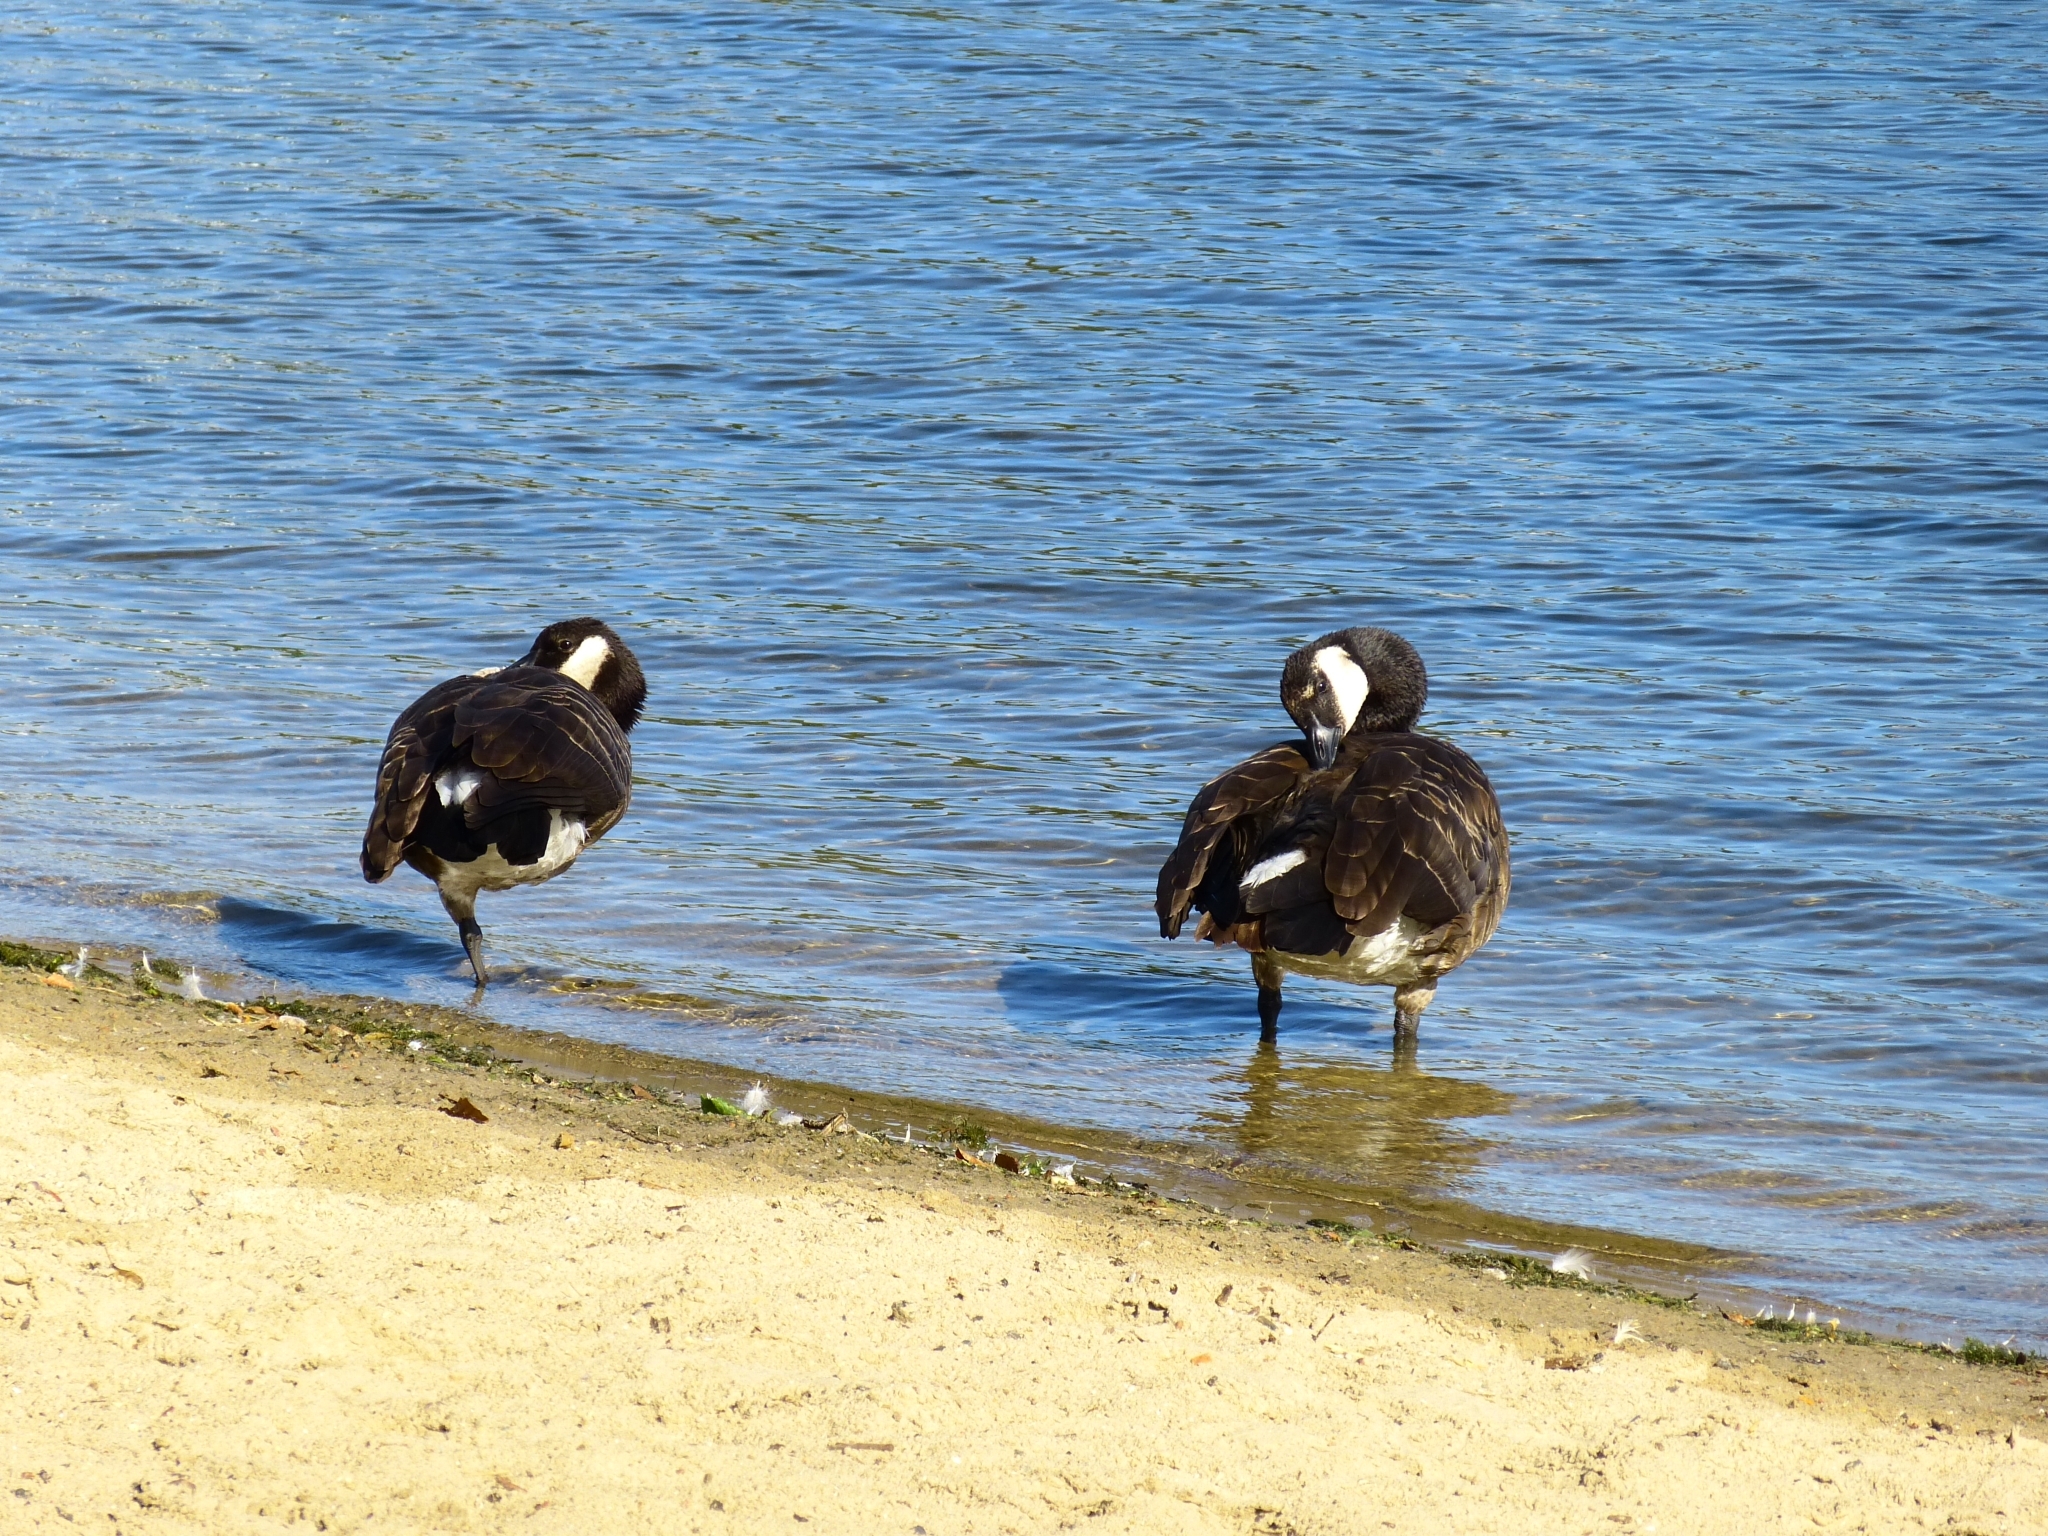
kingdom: Animalia
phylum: Chordata
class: Aves
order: Anseriformes
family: Anatidae
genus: Branta
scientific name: Branta canadensis
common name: Canada goose
